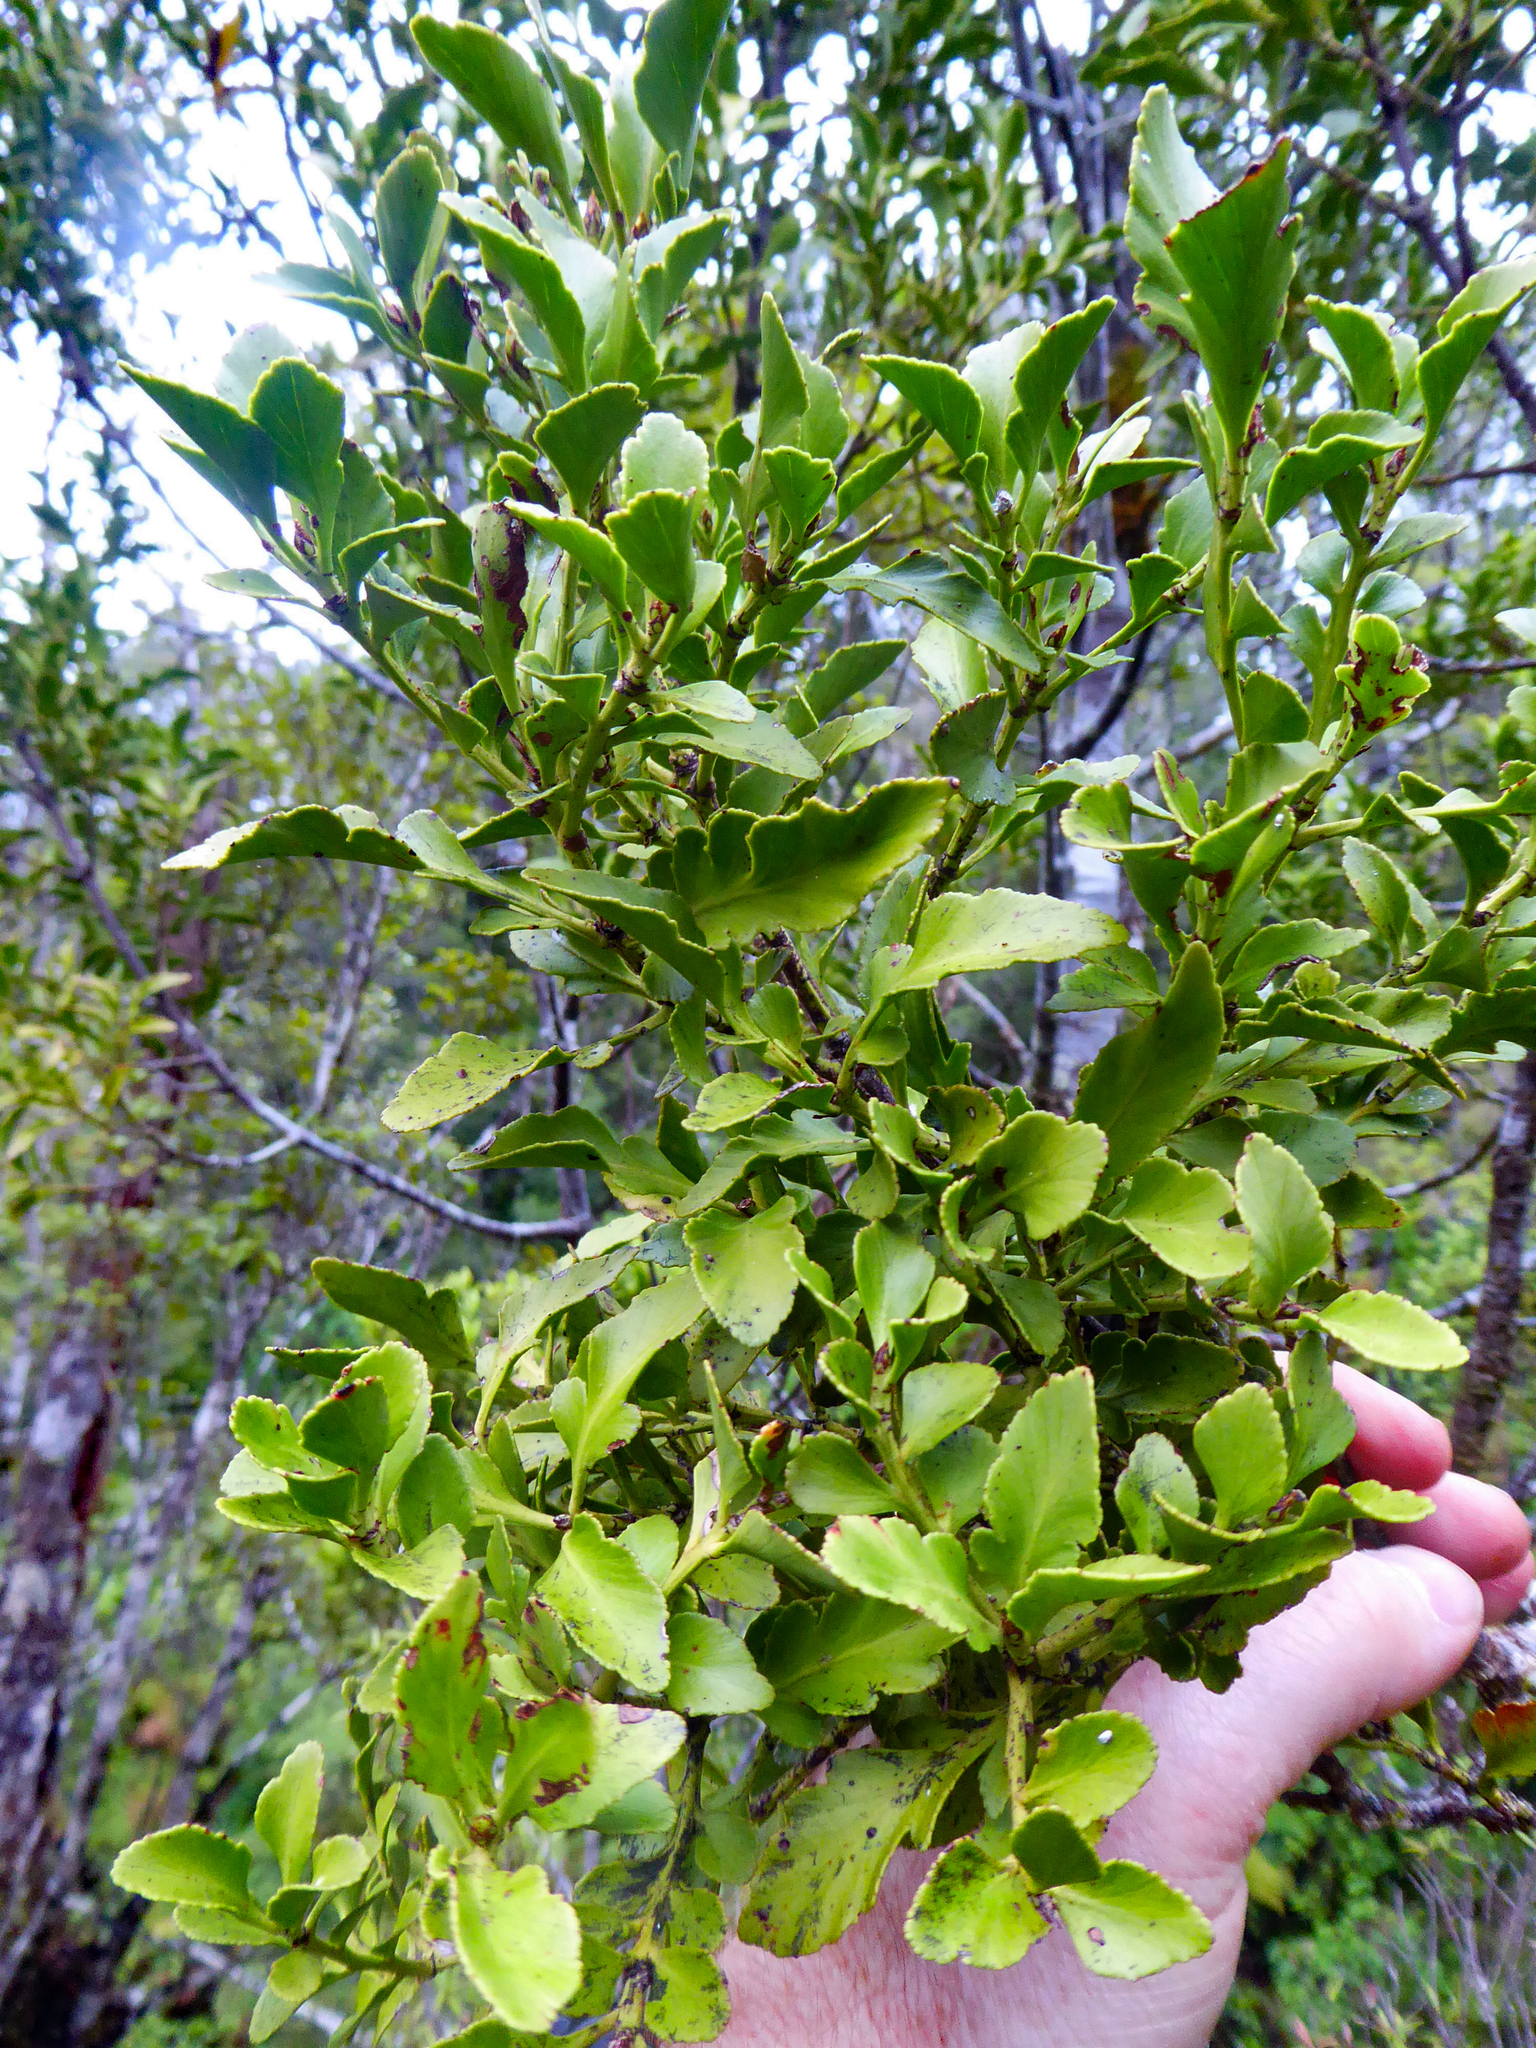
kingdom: Plantae
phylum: Tracheophyta
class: Pinopsida
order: Pinales
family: Phyllocladaceae
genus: Phyllocladus
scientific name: Phyllocladus trichomanoides
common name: Celery pine
